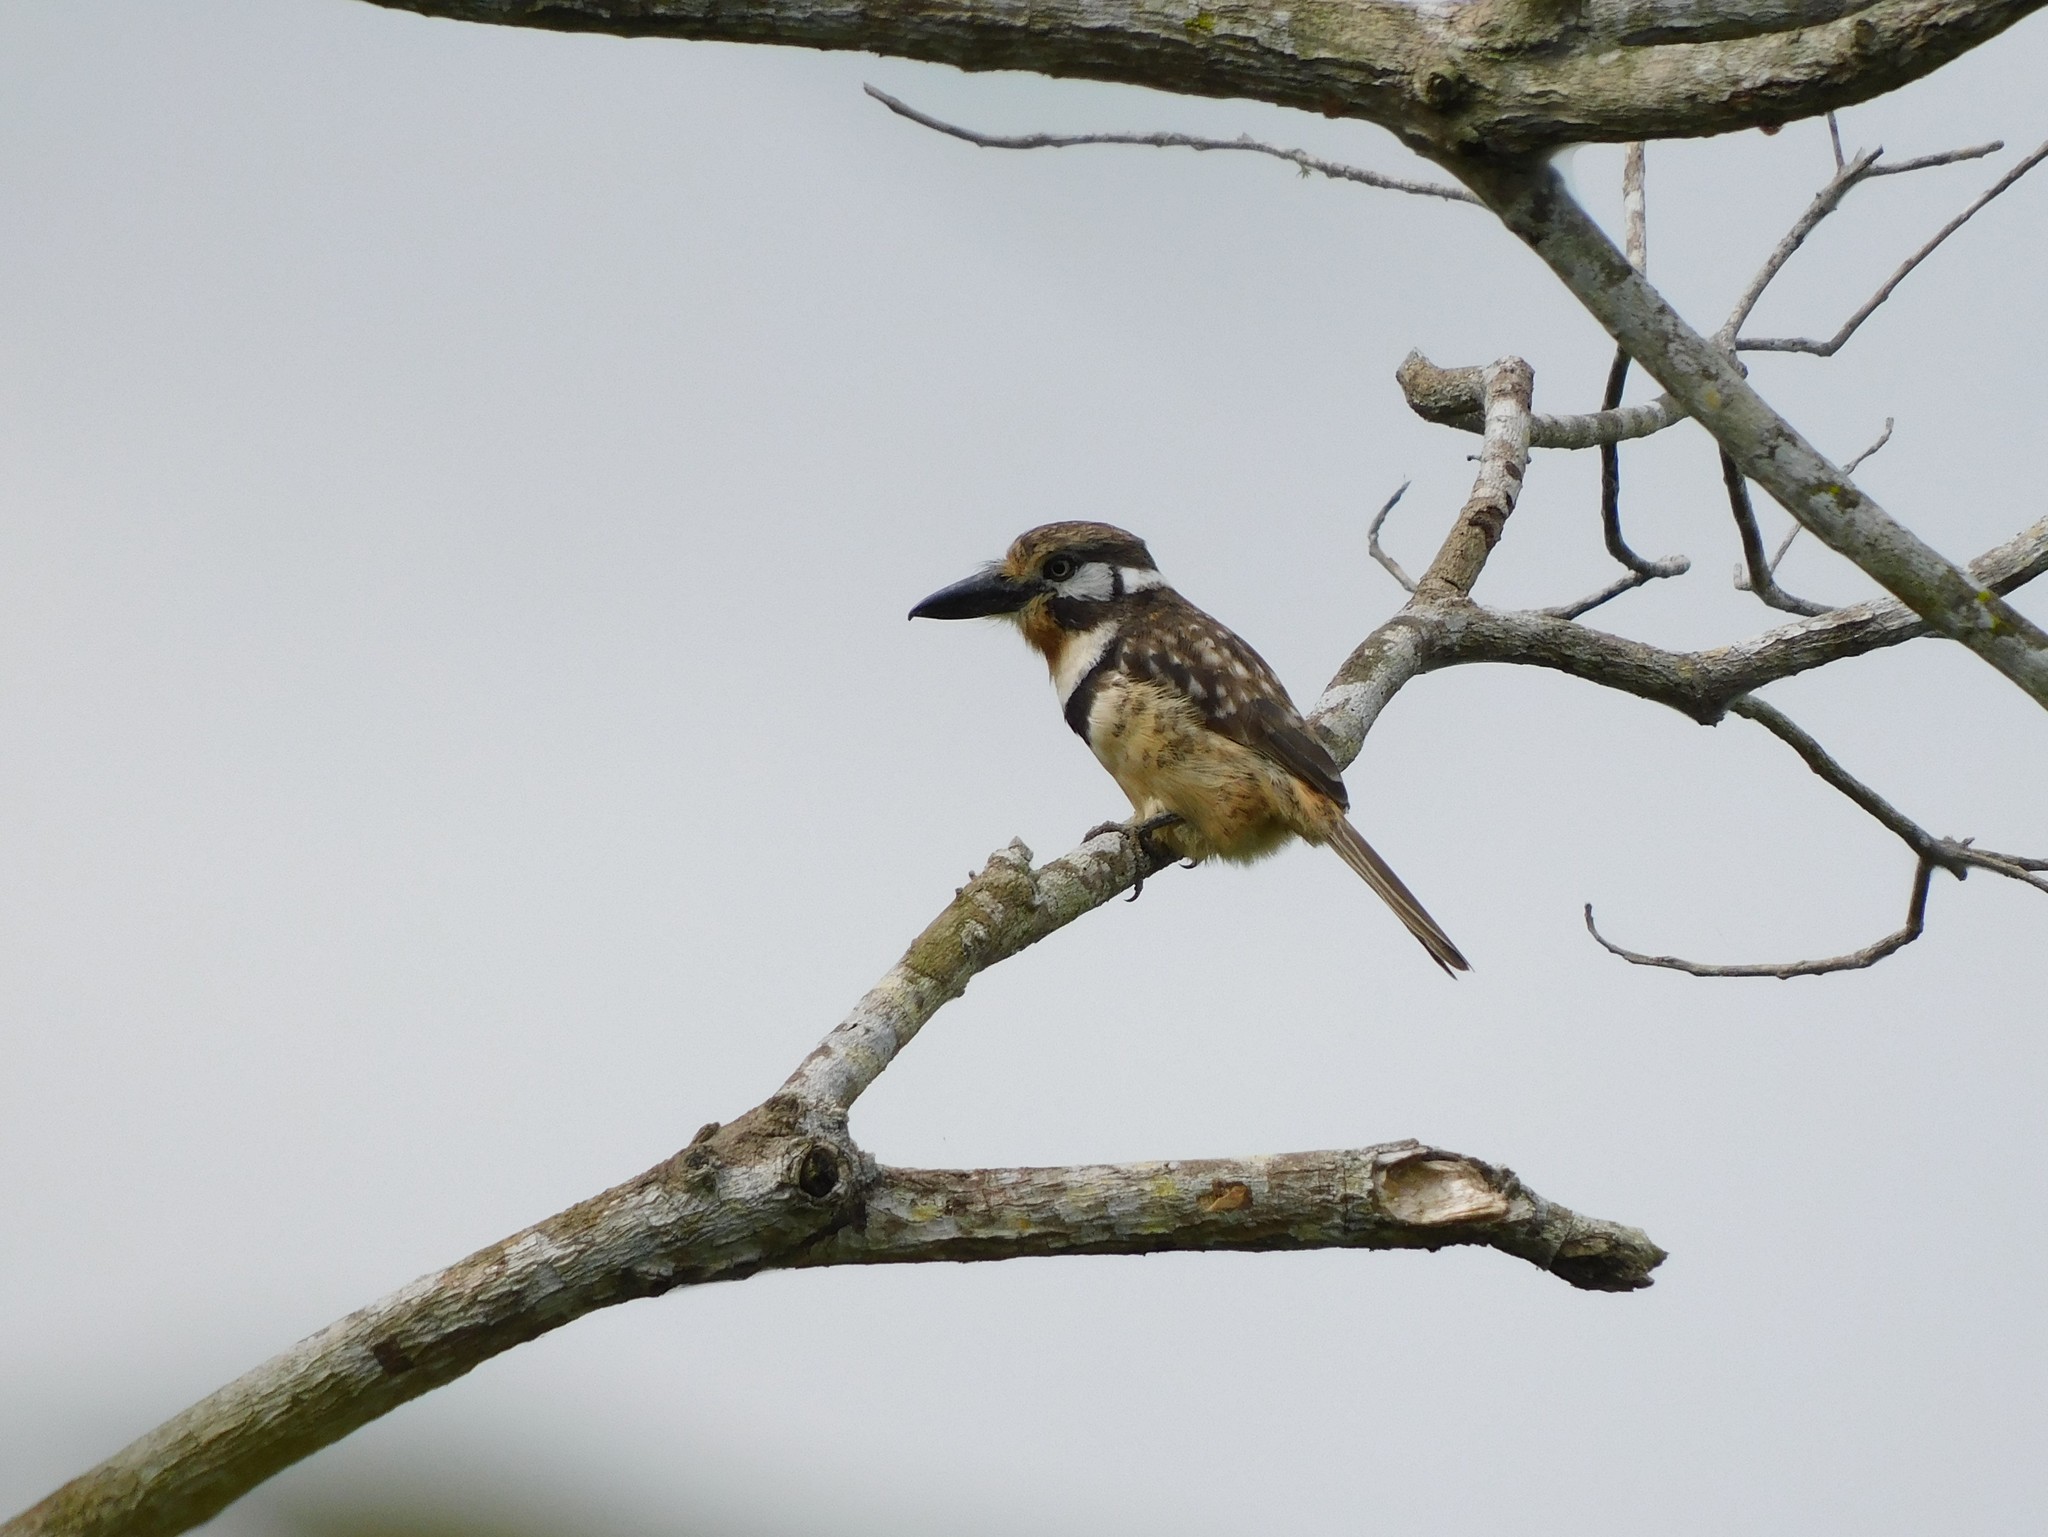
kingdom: Animalia
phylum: Chordata
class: Aves
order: Piciformes
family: Bucconidae
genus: Hypnelus
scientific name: Hypnelus ruficollis
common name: Russet-throated puffbird
